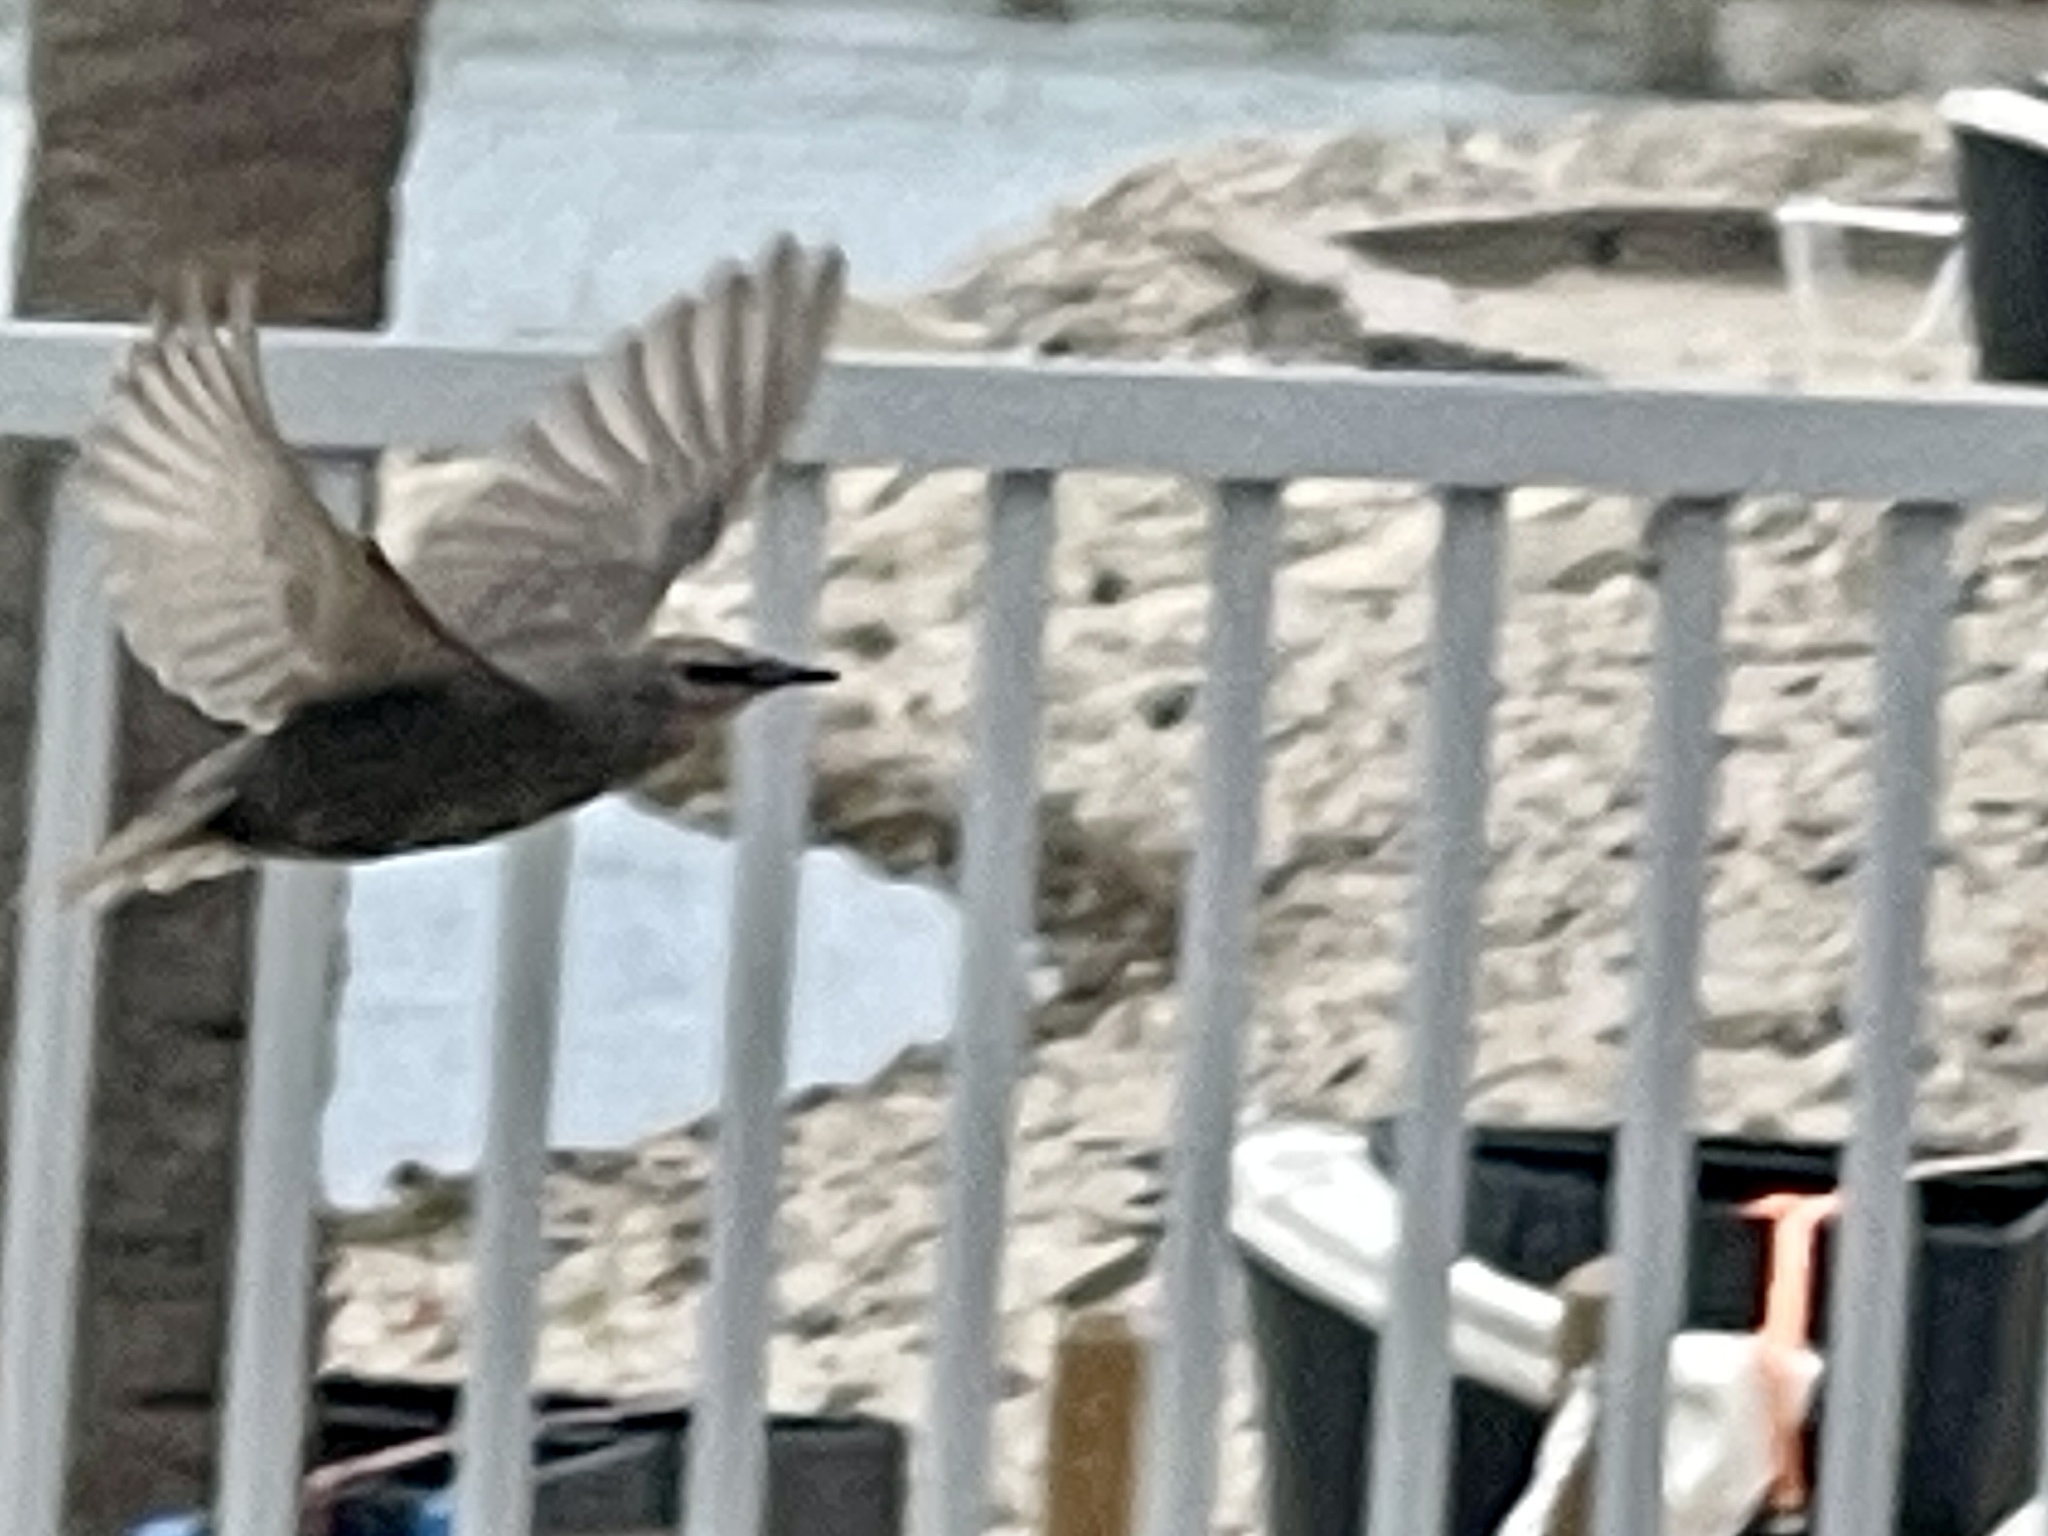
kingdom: Animalia
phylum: Chordata
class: Aves
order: Passeriformes
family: Mimidae
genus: Mimus
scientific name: Mimus polyglottos
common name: Northern mockingbird
